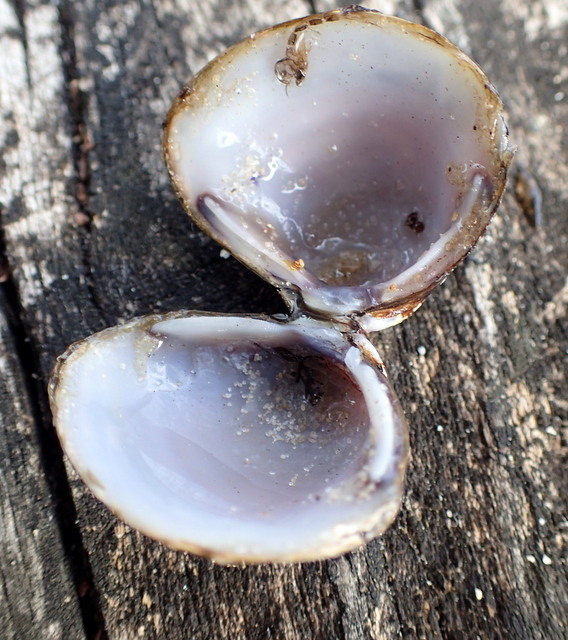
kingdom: Animalia
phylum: Mollusca
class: Bivalvia
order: Venerida
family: Cyrenidae
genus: Corbicula
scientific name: Corbicula fluminea
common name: Asian clam
